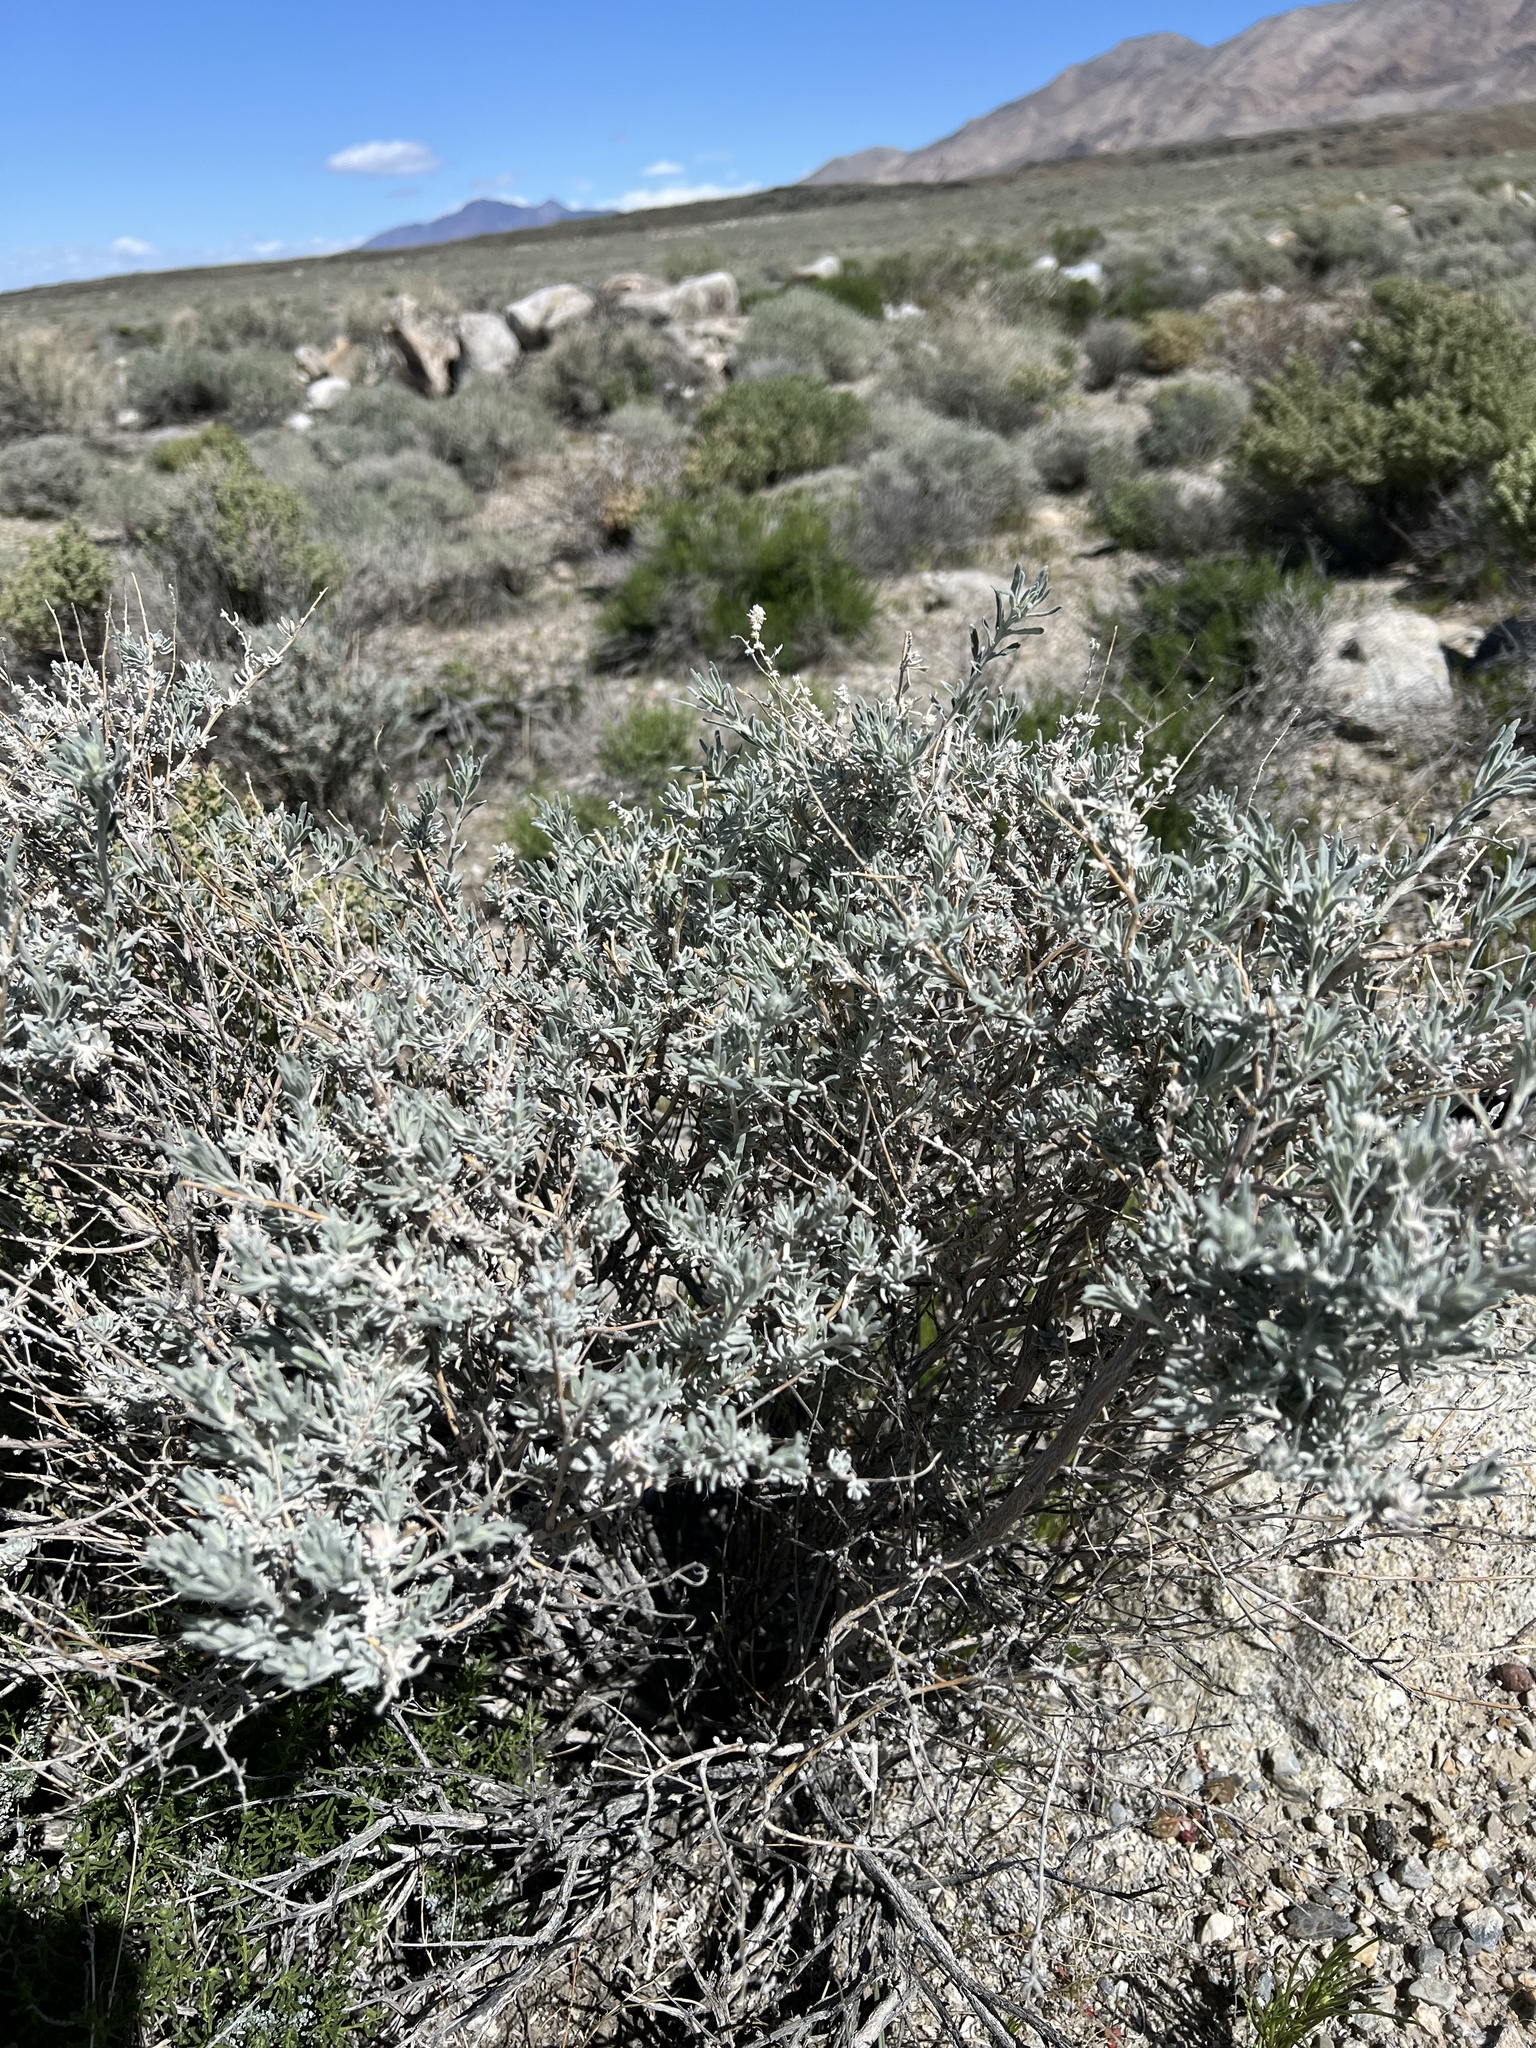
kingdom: Plantae
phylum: Tracheophyta
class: Magnoliopsida
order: Caryophyllales
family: Amaranthaceae
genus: Krascheninnikovia
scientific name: Krascheninnikovia lanata
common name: Winterfat
